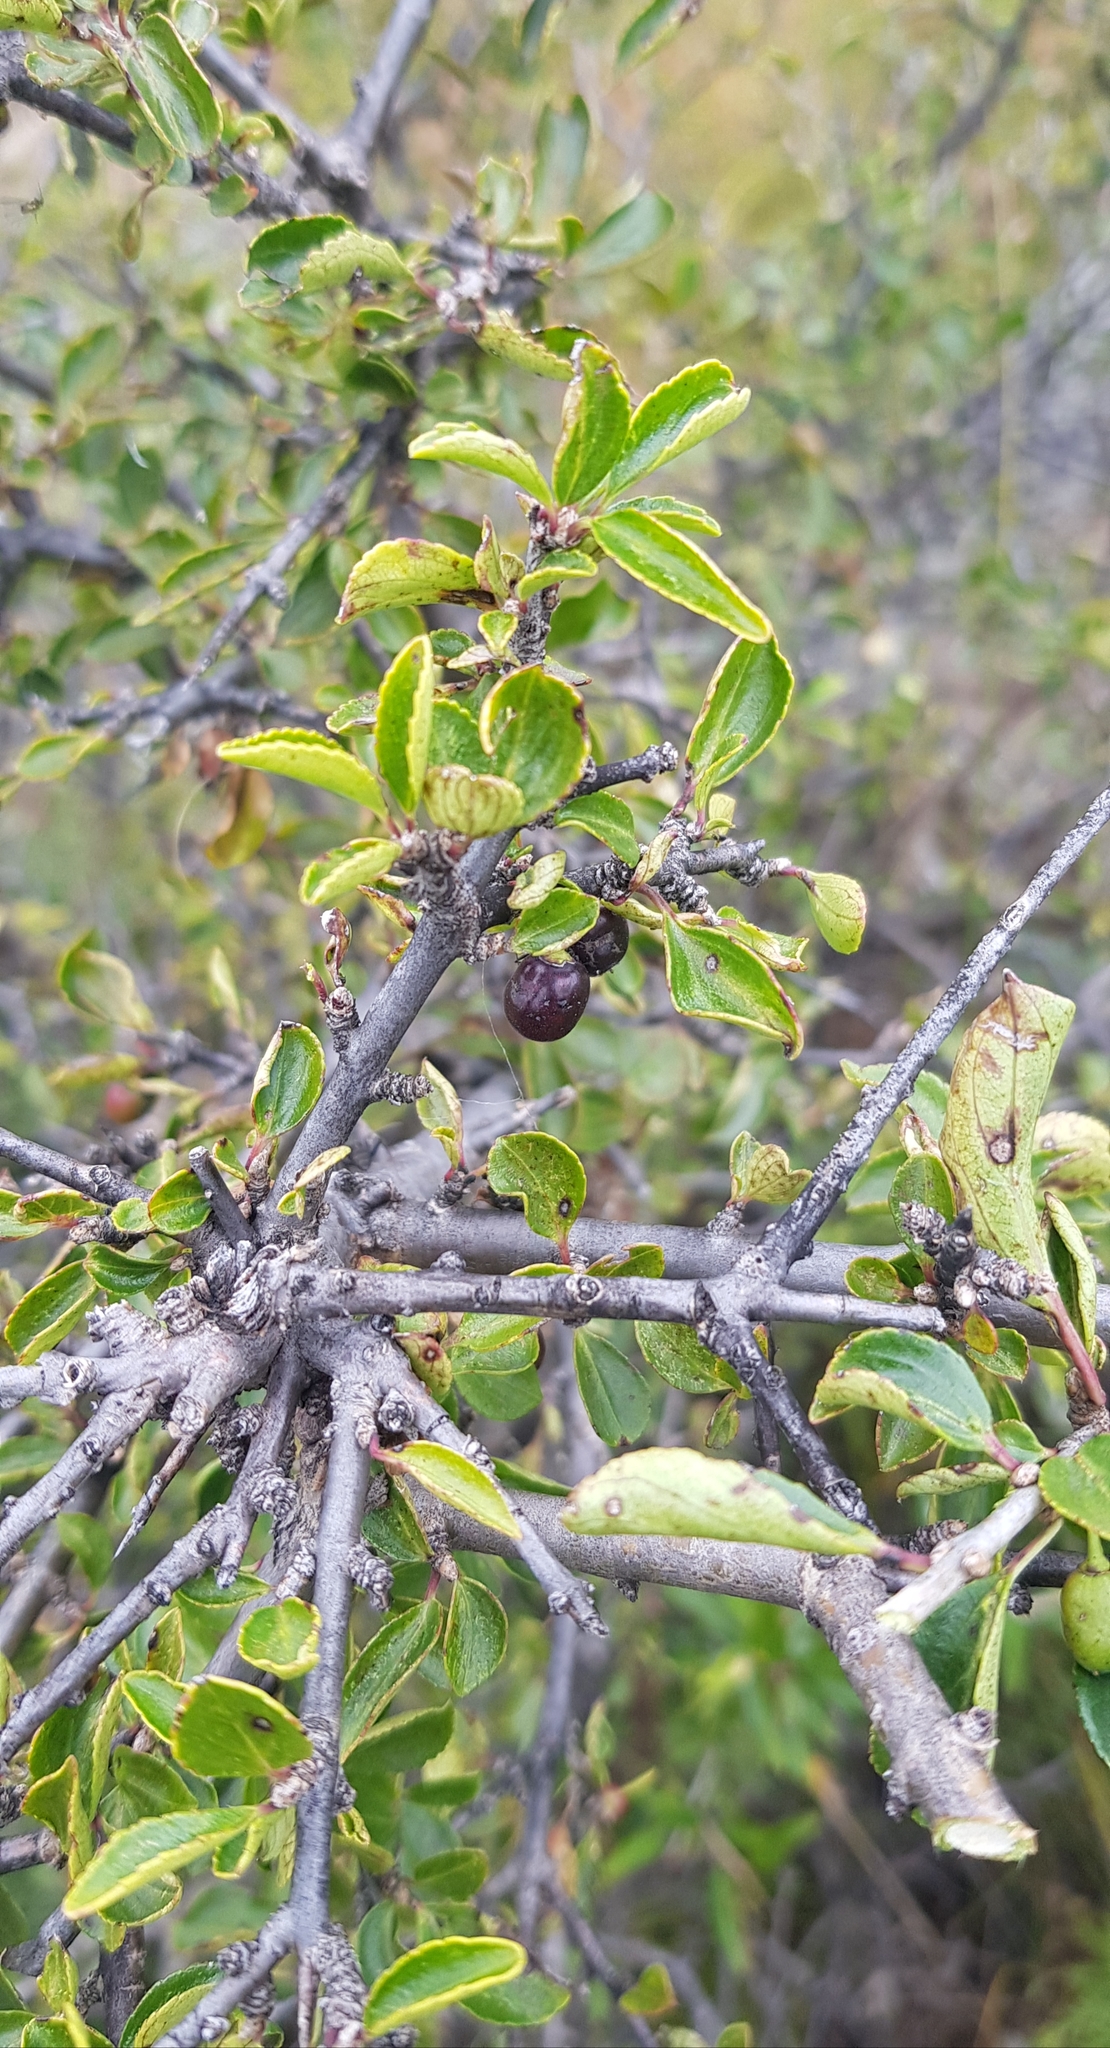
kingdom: Plantae
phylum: Tracheophyta
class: Magnoliopsida
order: Rosales
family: Rhamnaceae
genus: Rhamnus
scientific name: Rhamnus parvifolia
